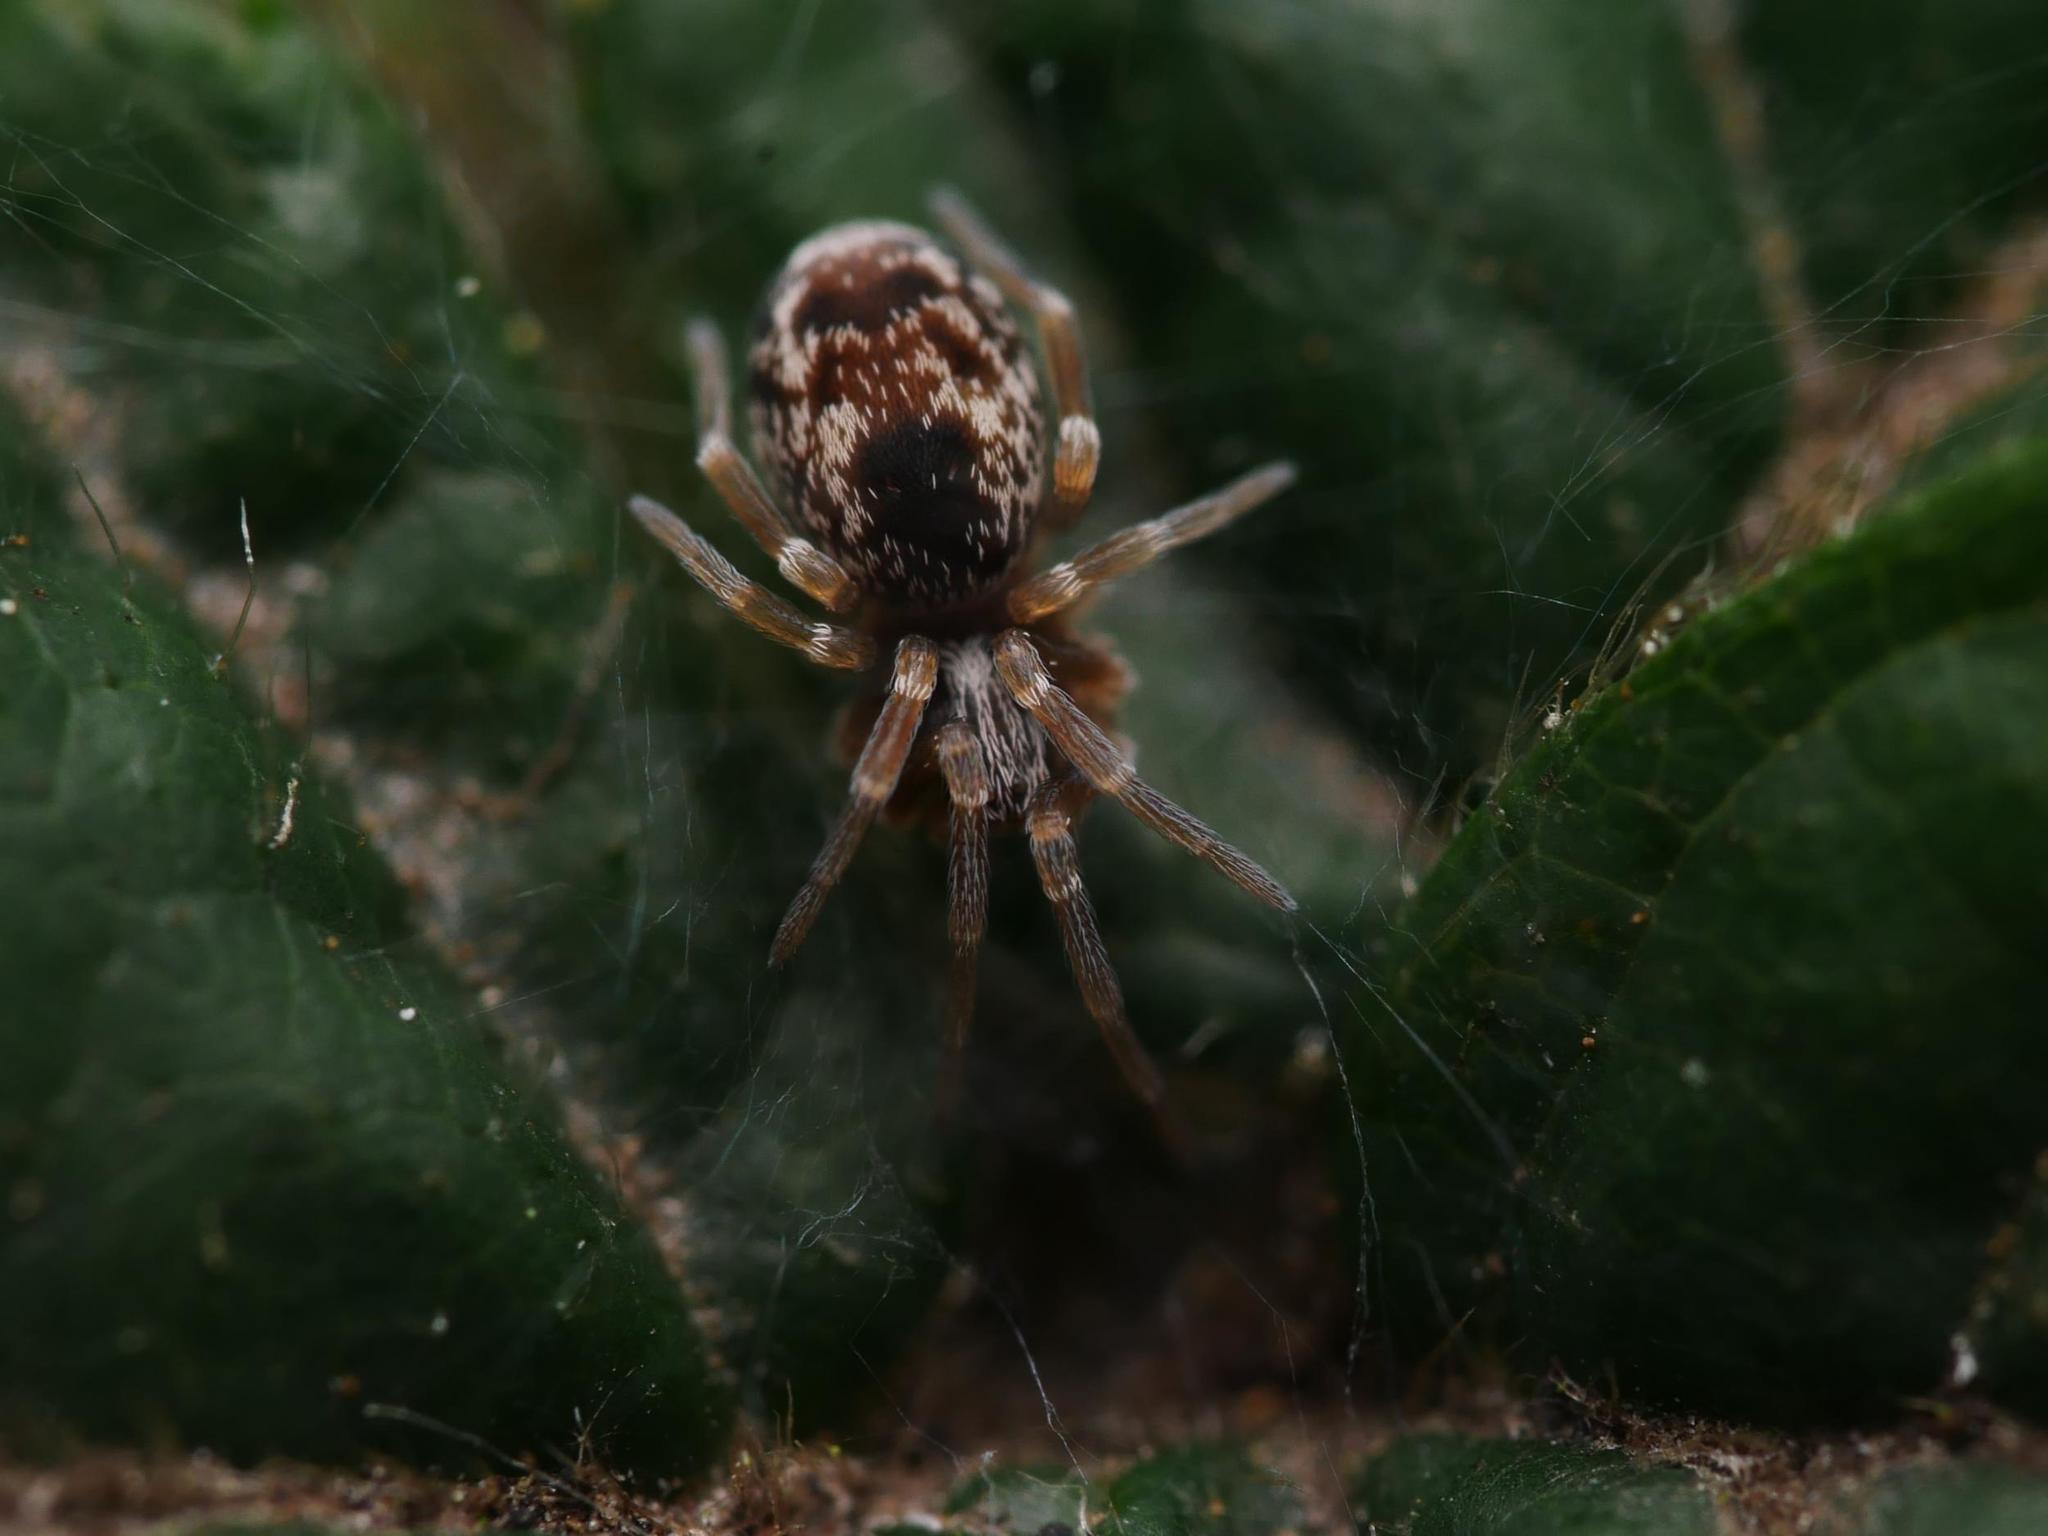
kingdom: Animalia
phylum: Arthropoda
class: Arachnida
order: Araneae
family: Dictynidae
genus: Dictyna
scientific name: Dictyna arundinacea
